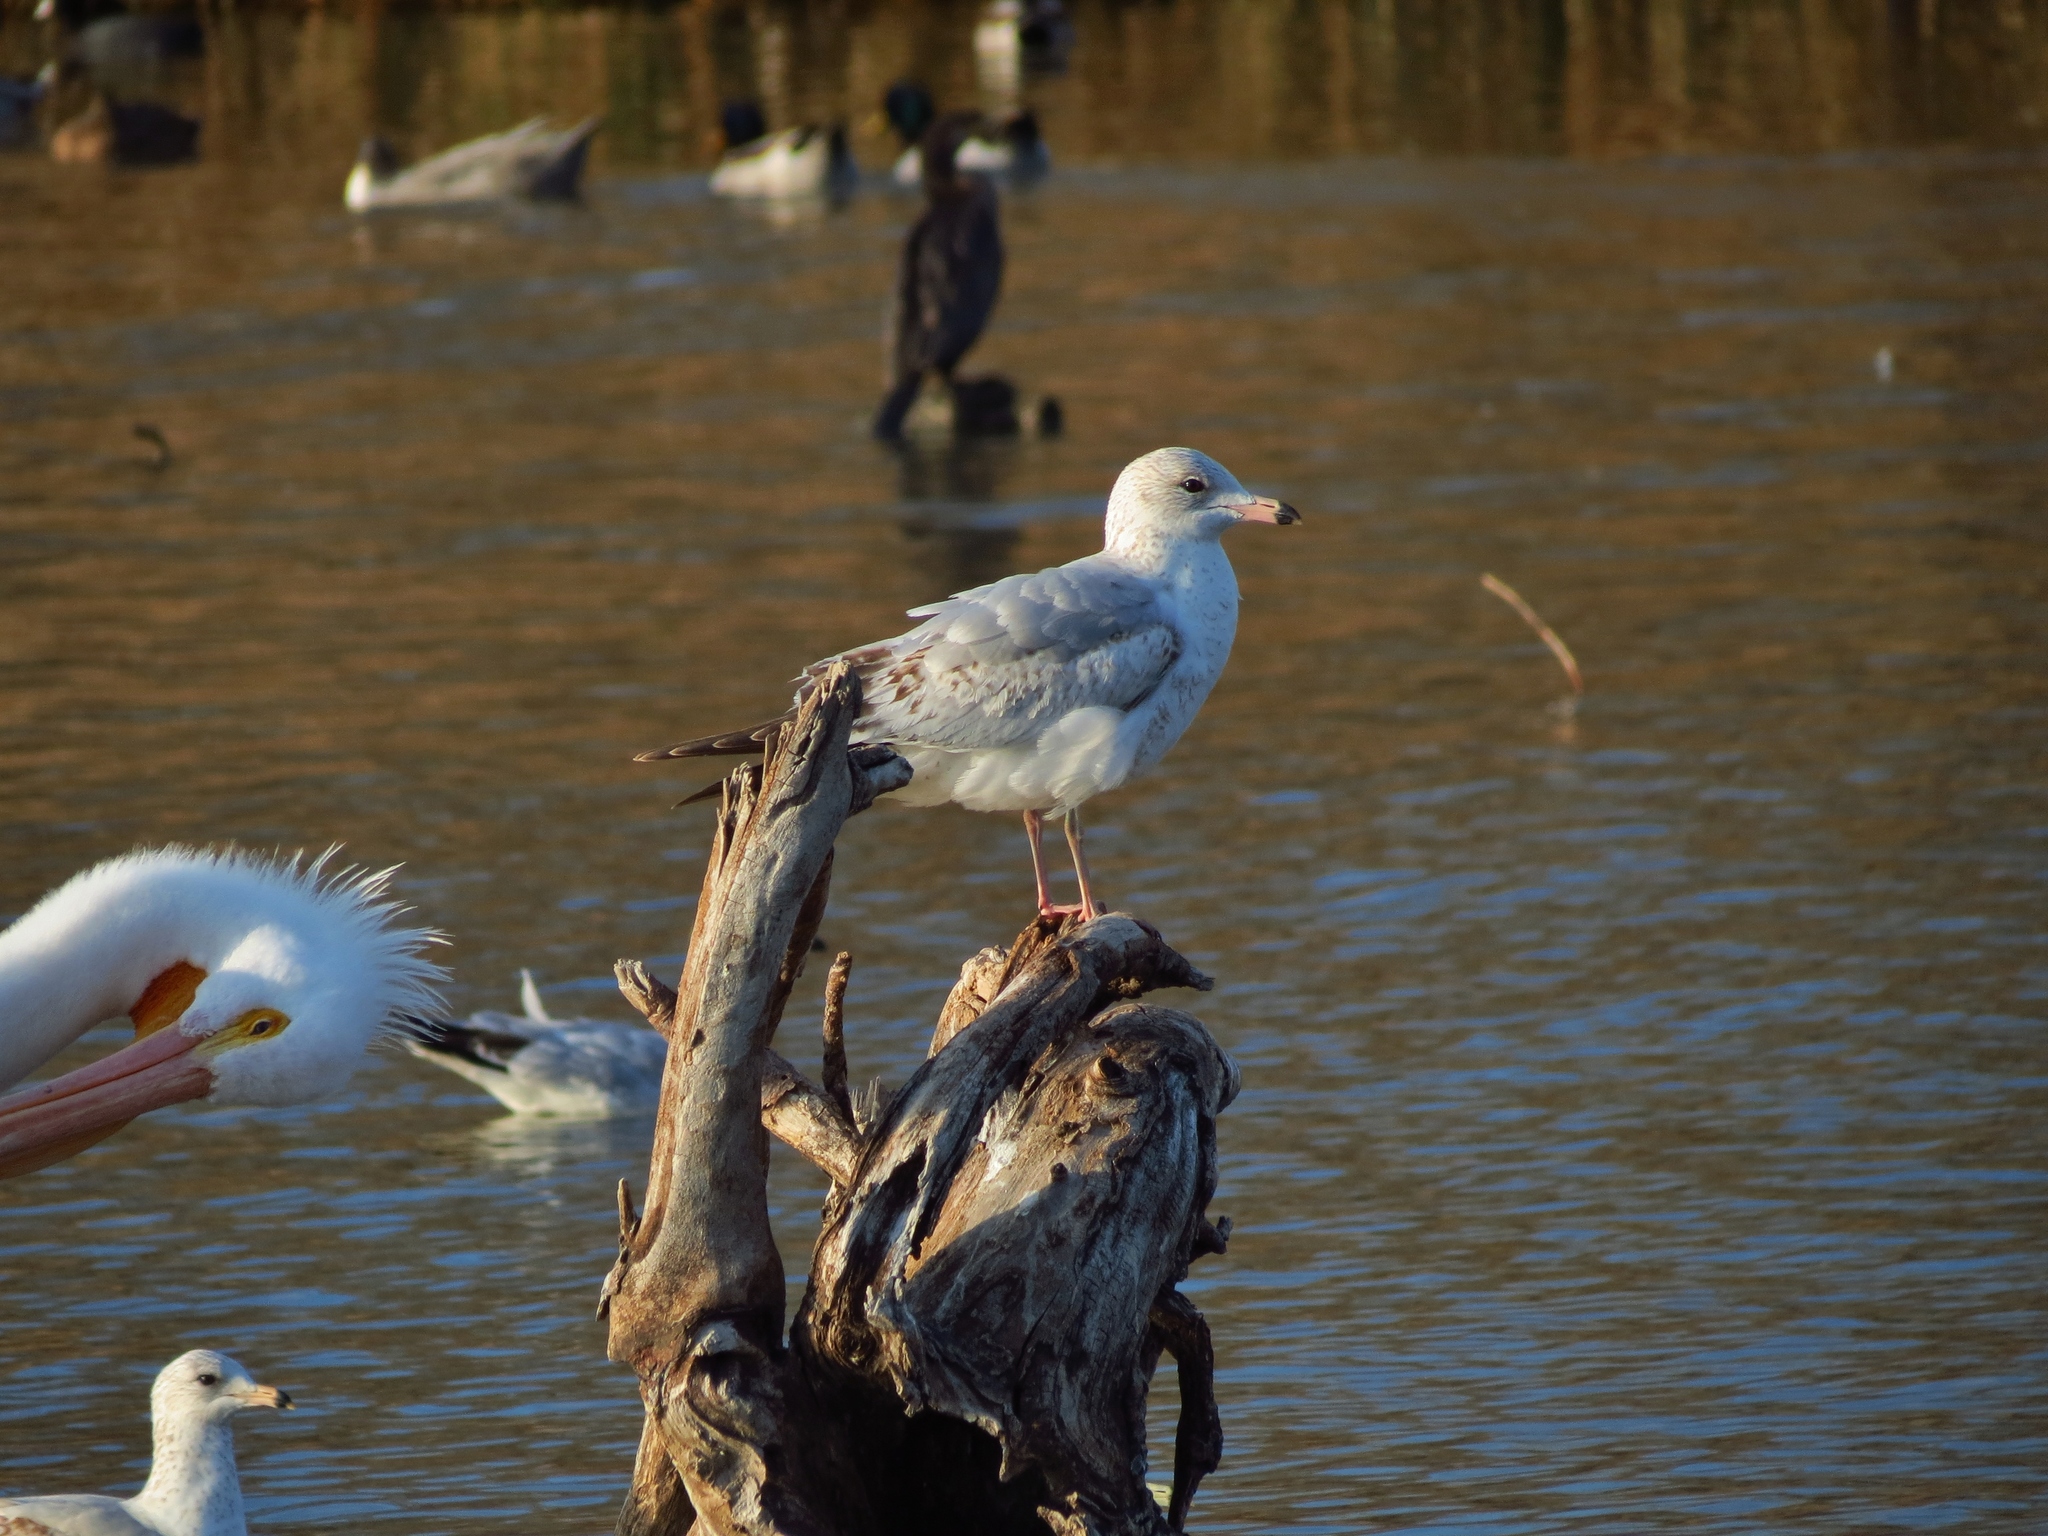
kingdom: Animalia
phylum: Chordata
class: Aves
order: Charadriiformes
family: Laridae
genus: Larus
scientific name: Larus delawarensis
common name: Ring-billed gull
